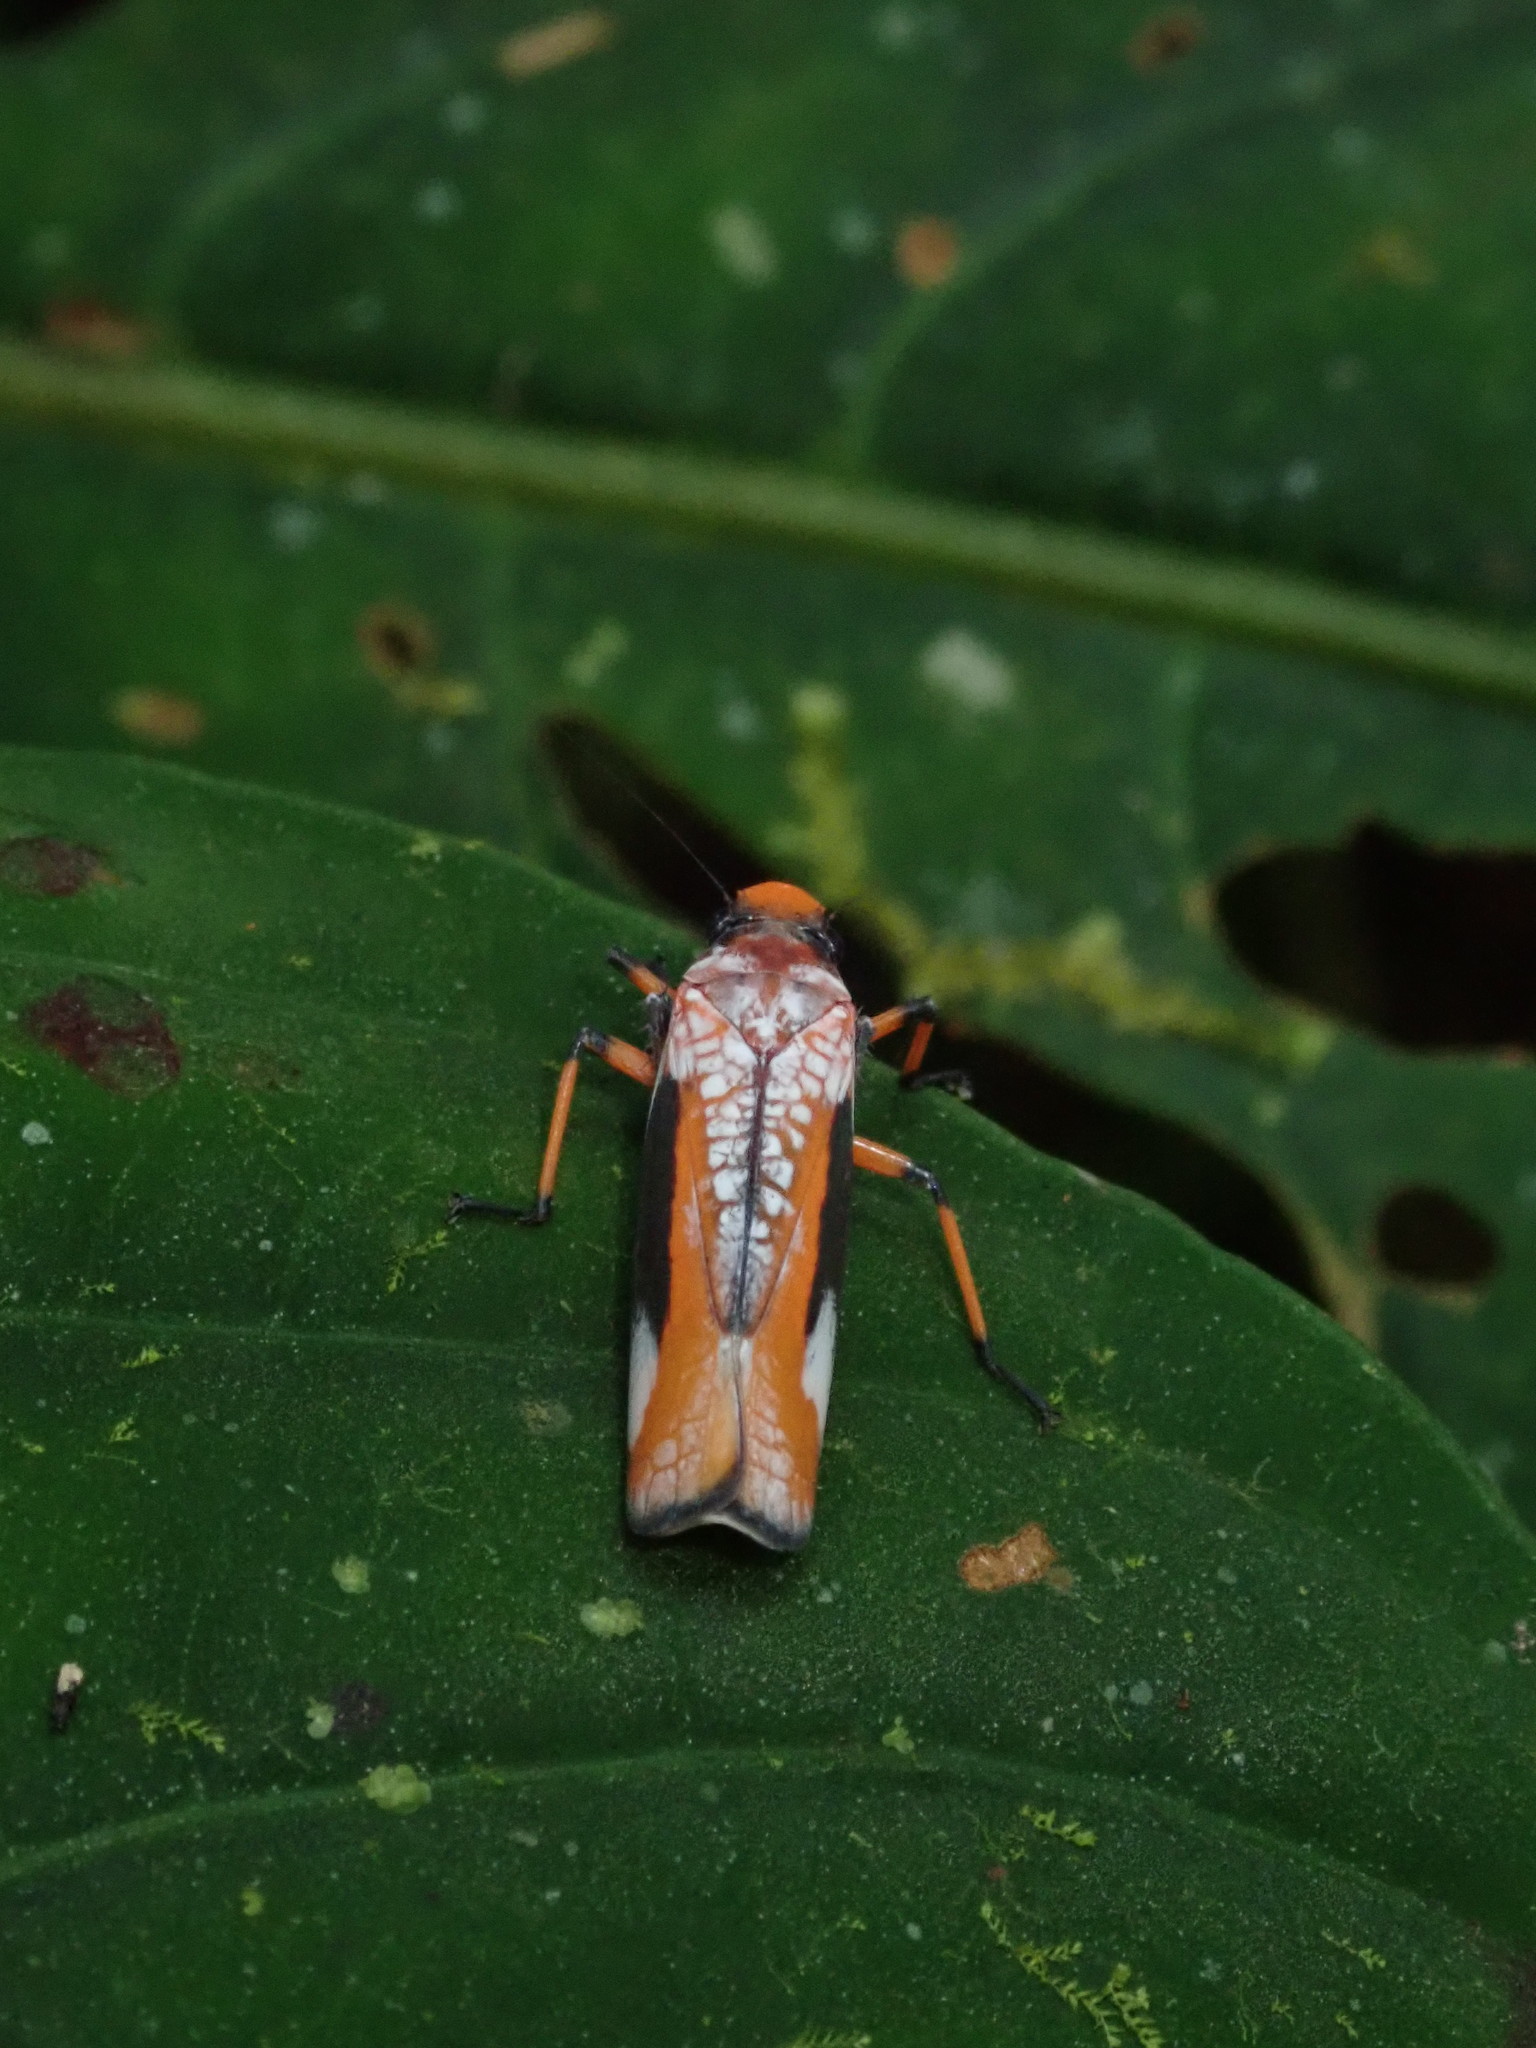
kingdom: Animalia
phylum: Arthropoda
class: Insecta
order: Hemiptera
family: Cicadellidae
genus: Onega
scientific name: Onega avella
